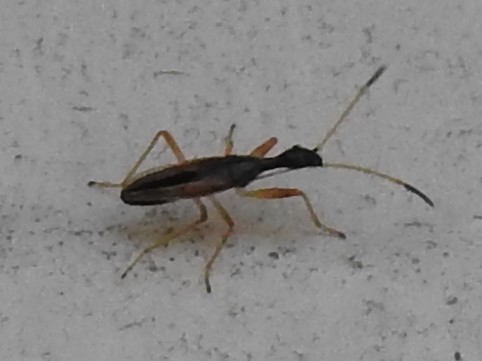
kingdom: Animalia
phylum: Arthropoda
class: Insecta
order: Hemiptera
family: Rhyparochromidae
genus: Myodocha
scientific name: Myodocha serripes
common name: Long-necked seed bug
